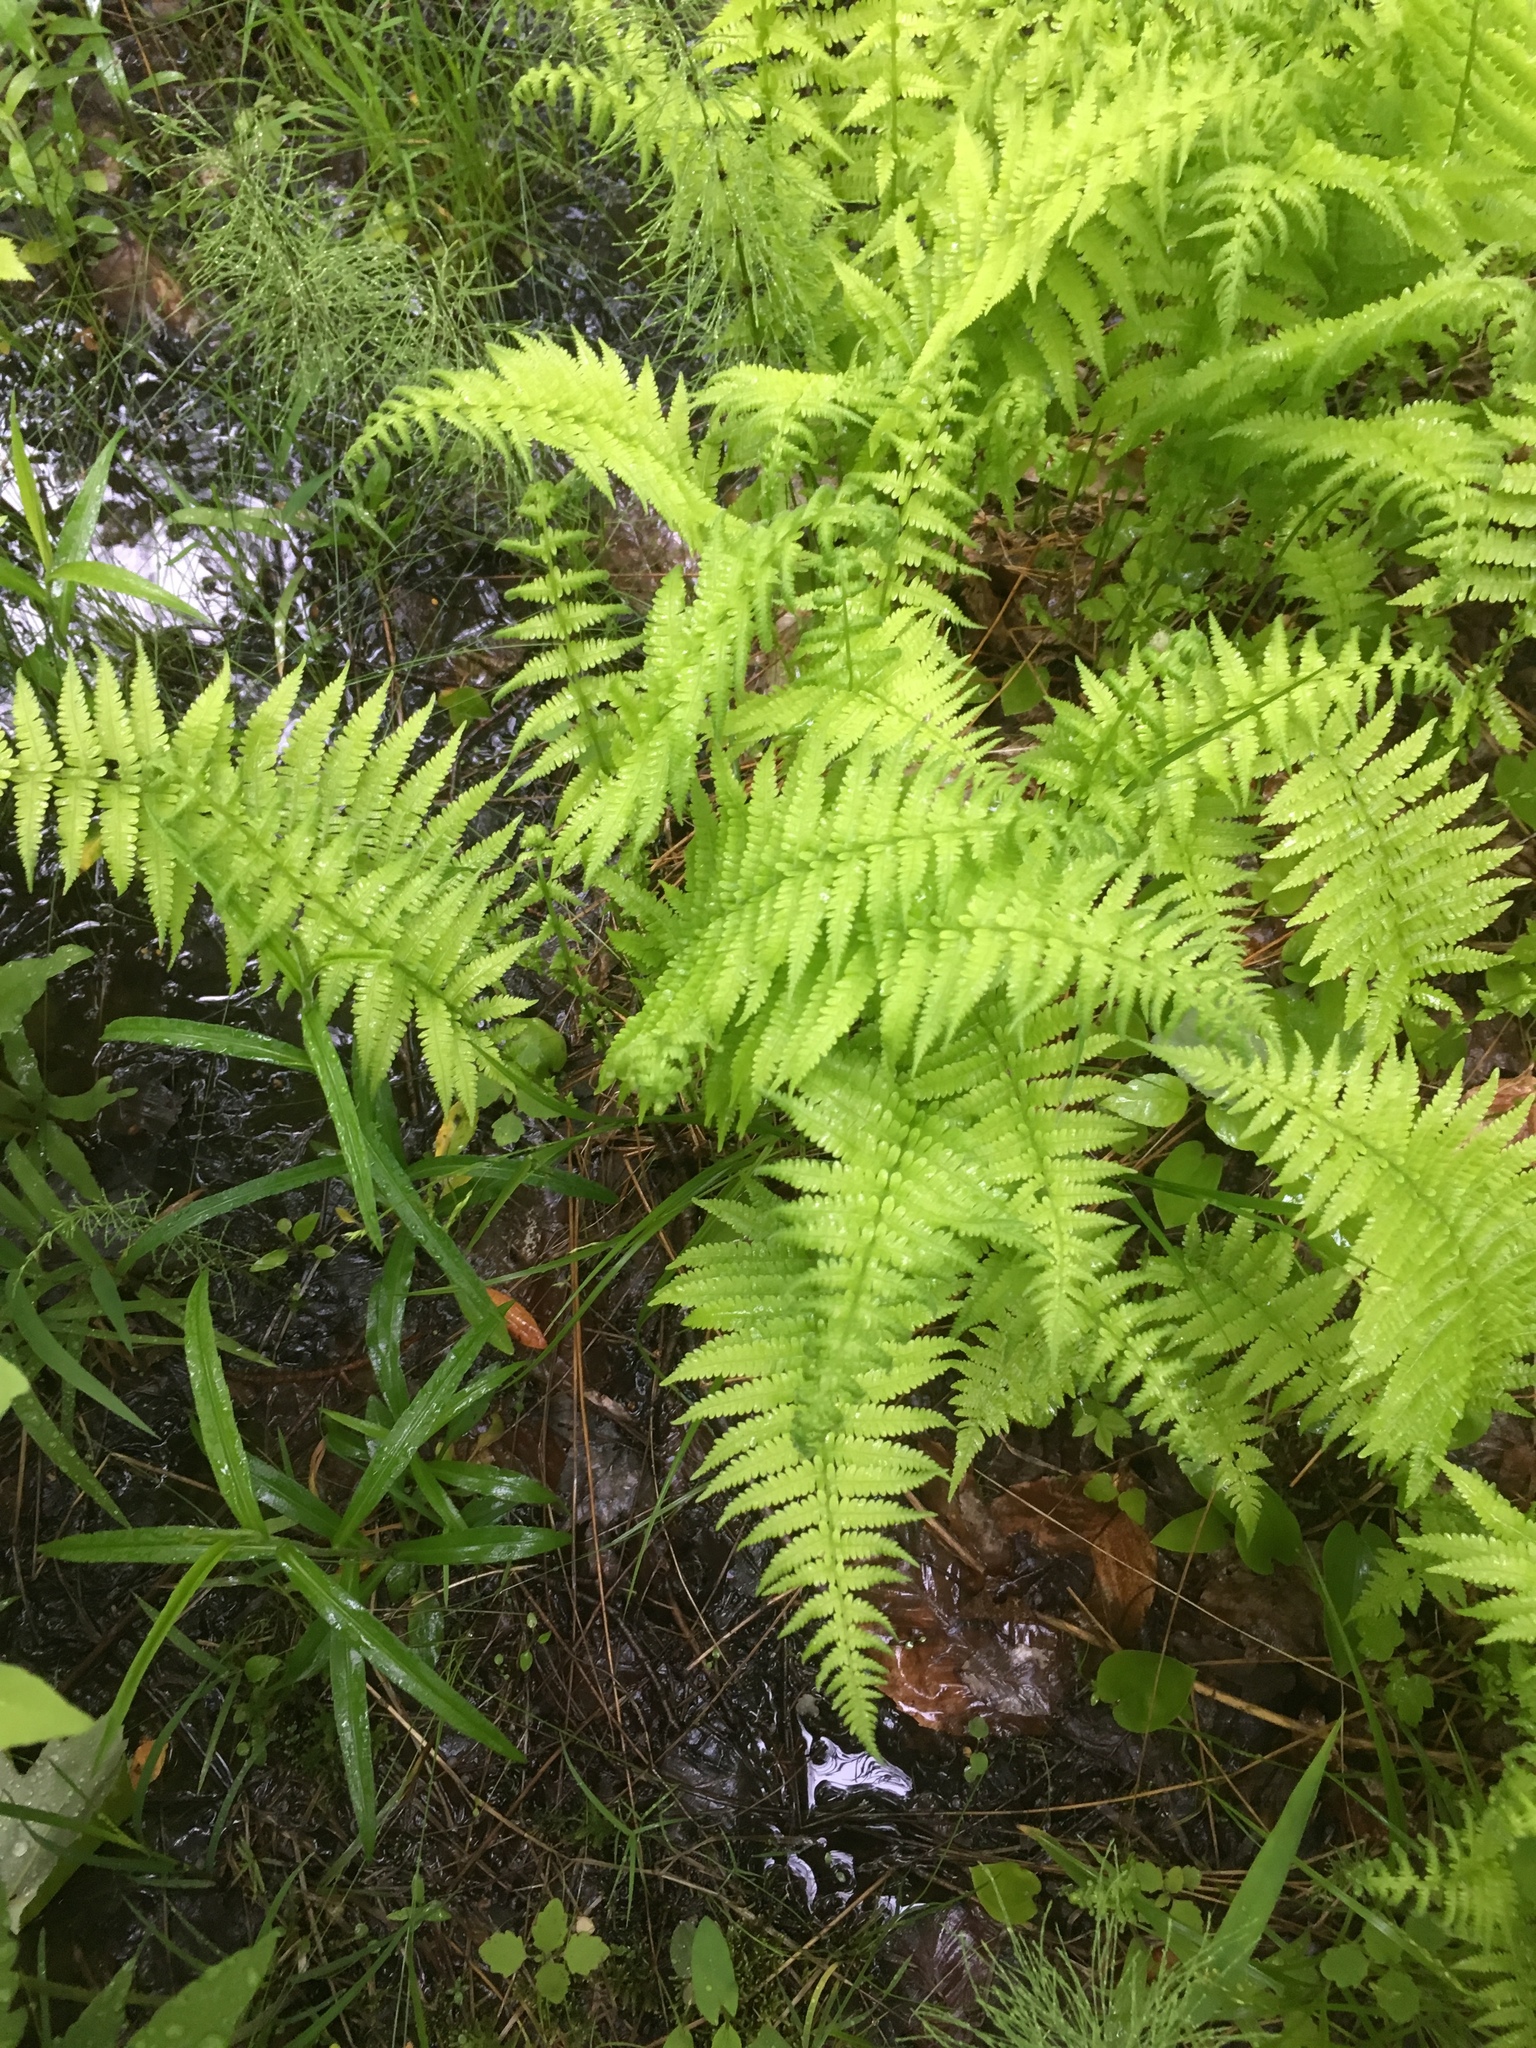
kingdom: Plantae
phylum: Tracheophyta
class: Polypodiopsida
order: Polypodiales
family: Thelypteridaceae
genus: Amauropelta
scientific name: Amauropelta noveboracensis
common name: New york fern
